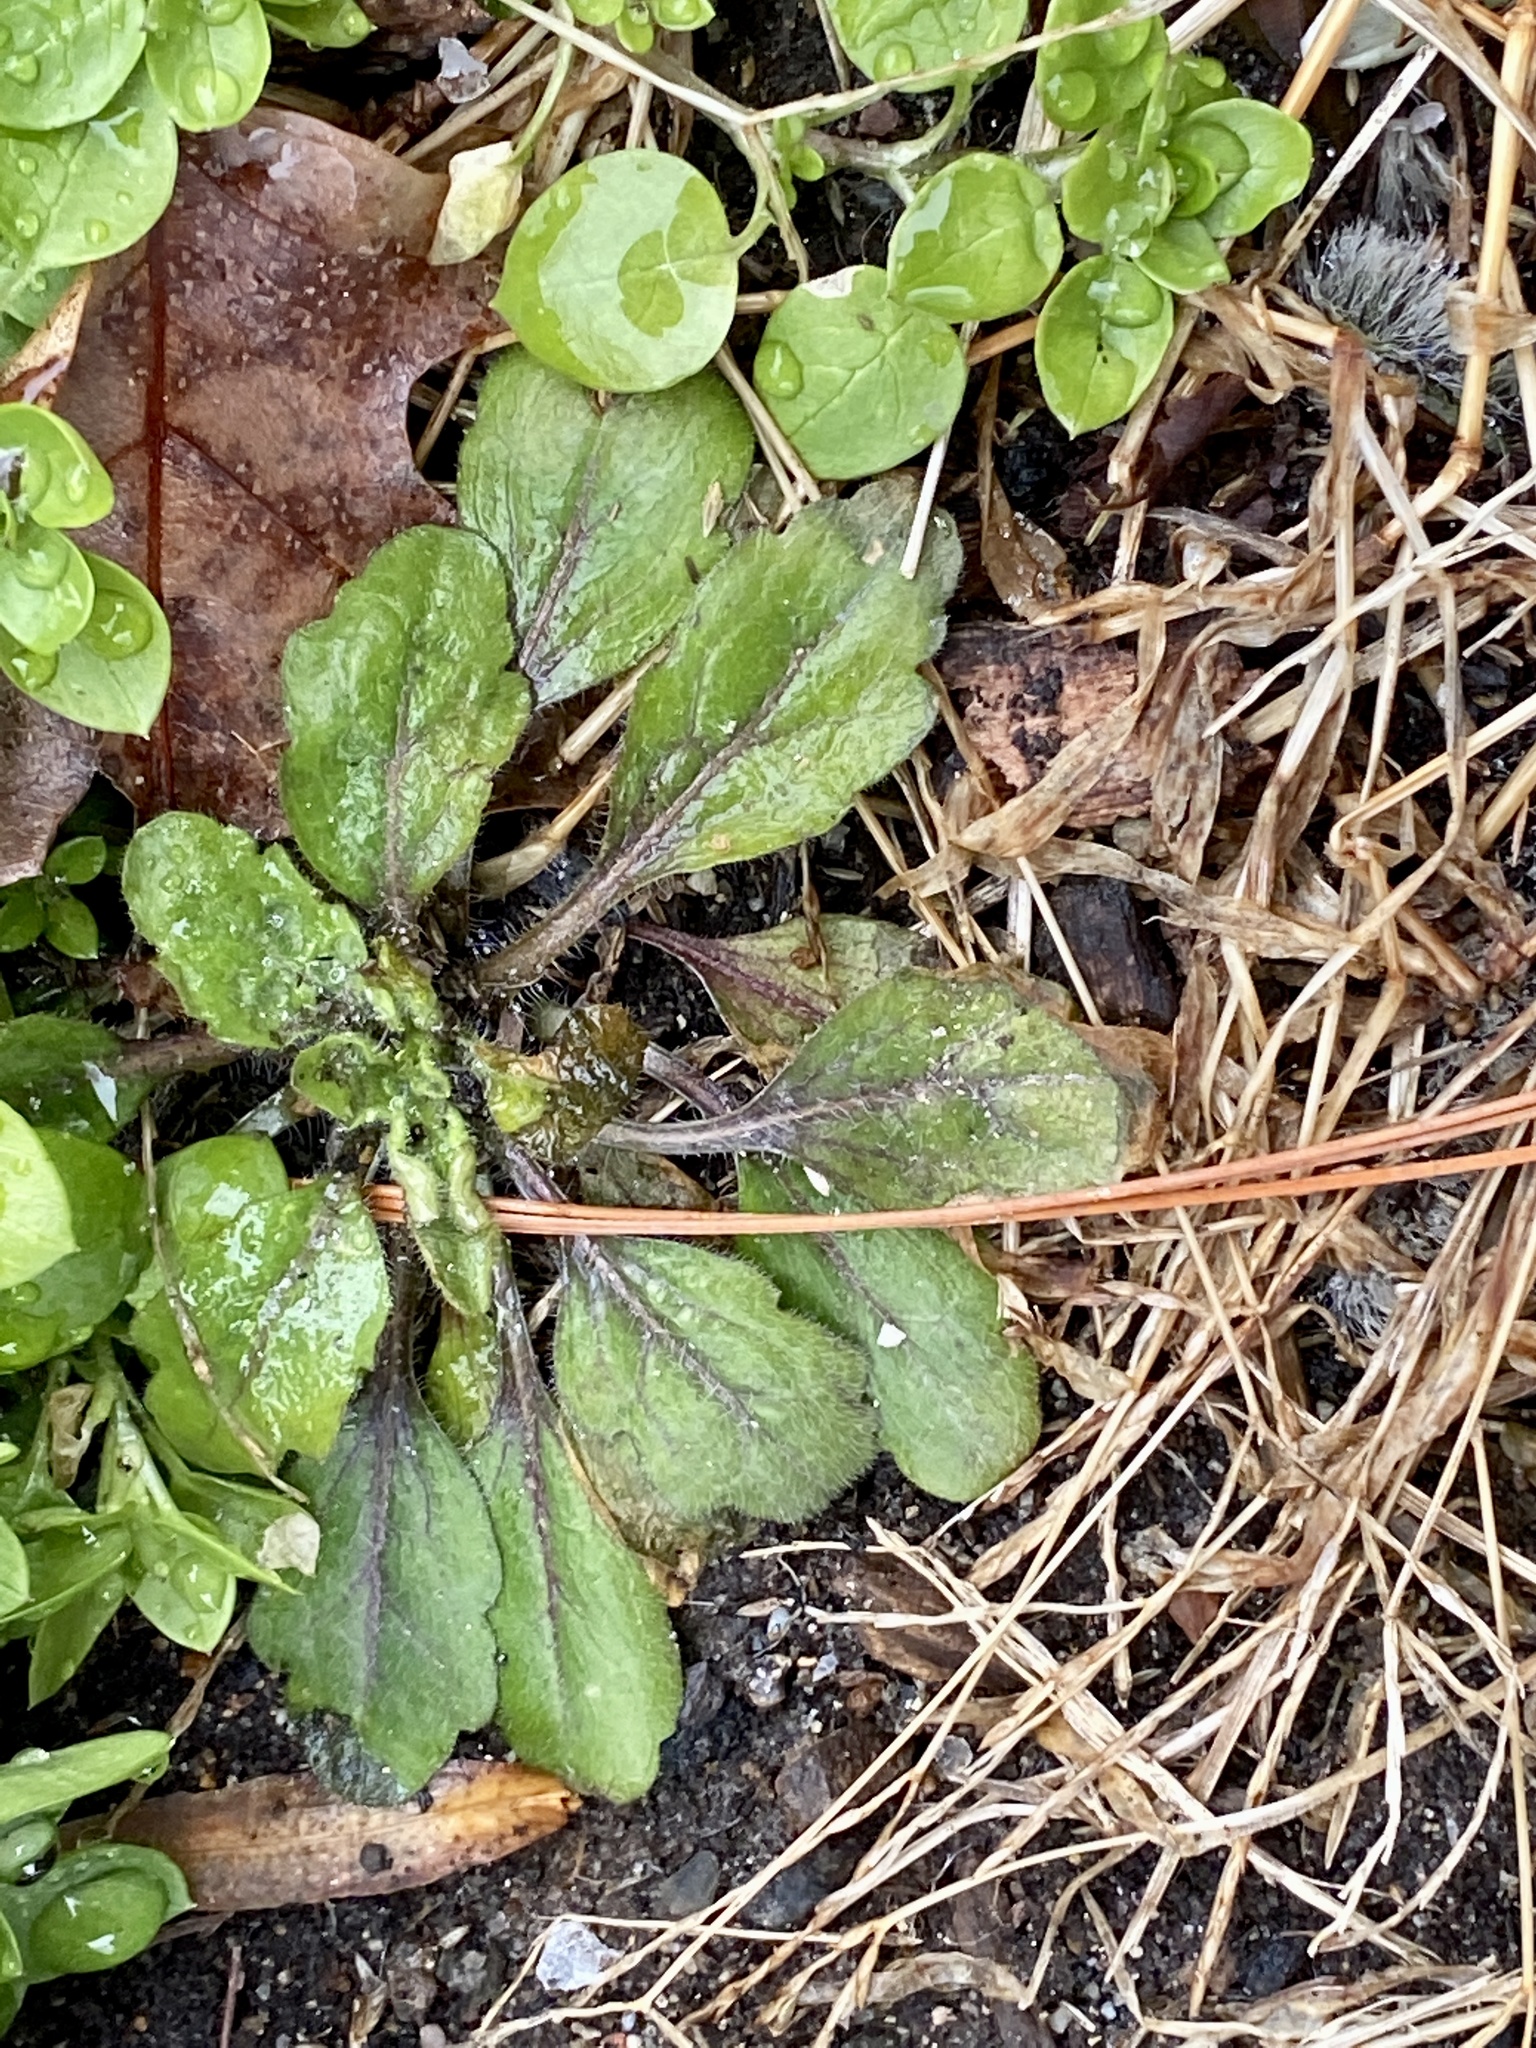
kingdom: Plantae
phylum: Tracheophyta
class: Magnoliopsida
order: Asterales
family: Asteraceae
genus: Erigeron
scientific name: Erigeron canadensis
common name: Canadian fleabane
